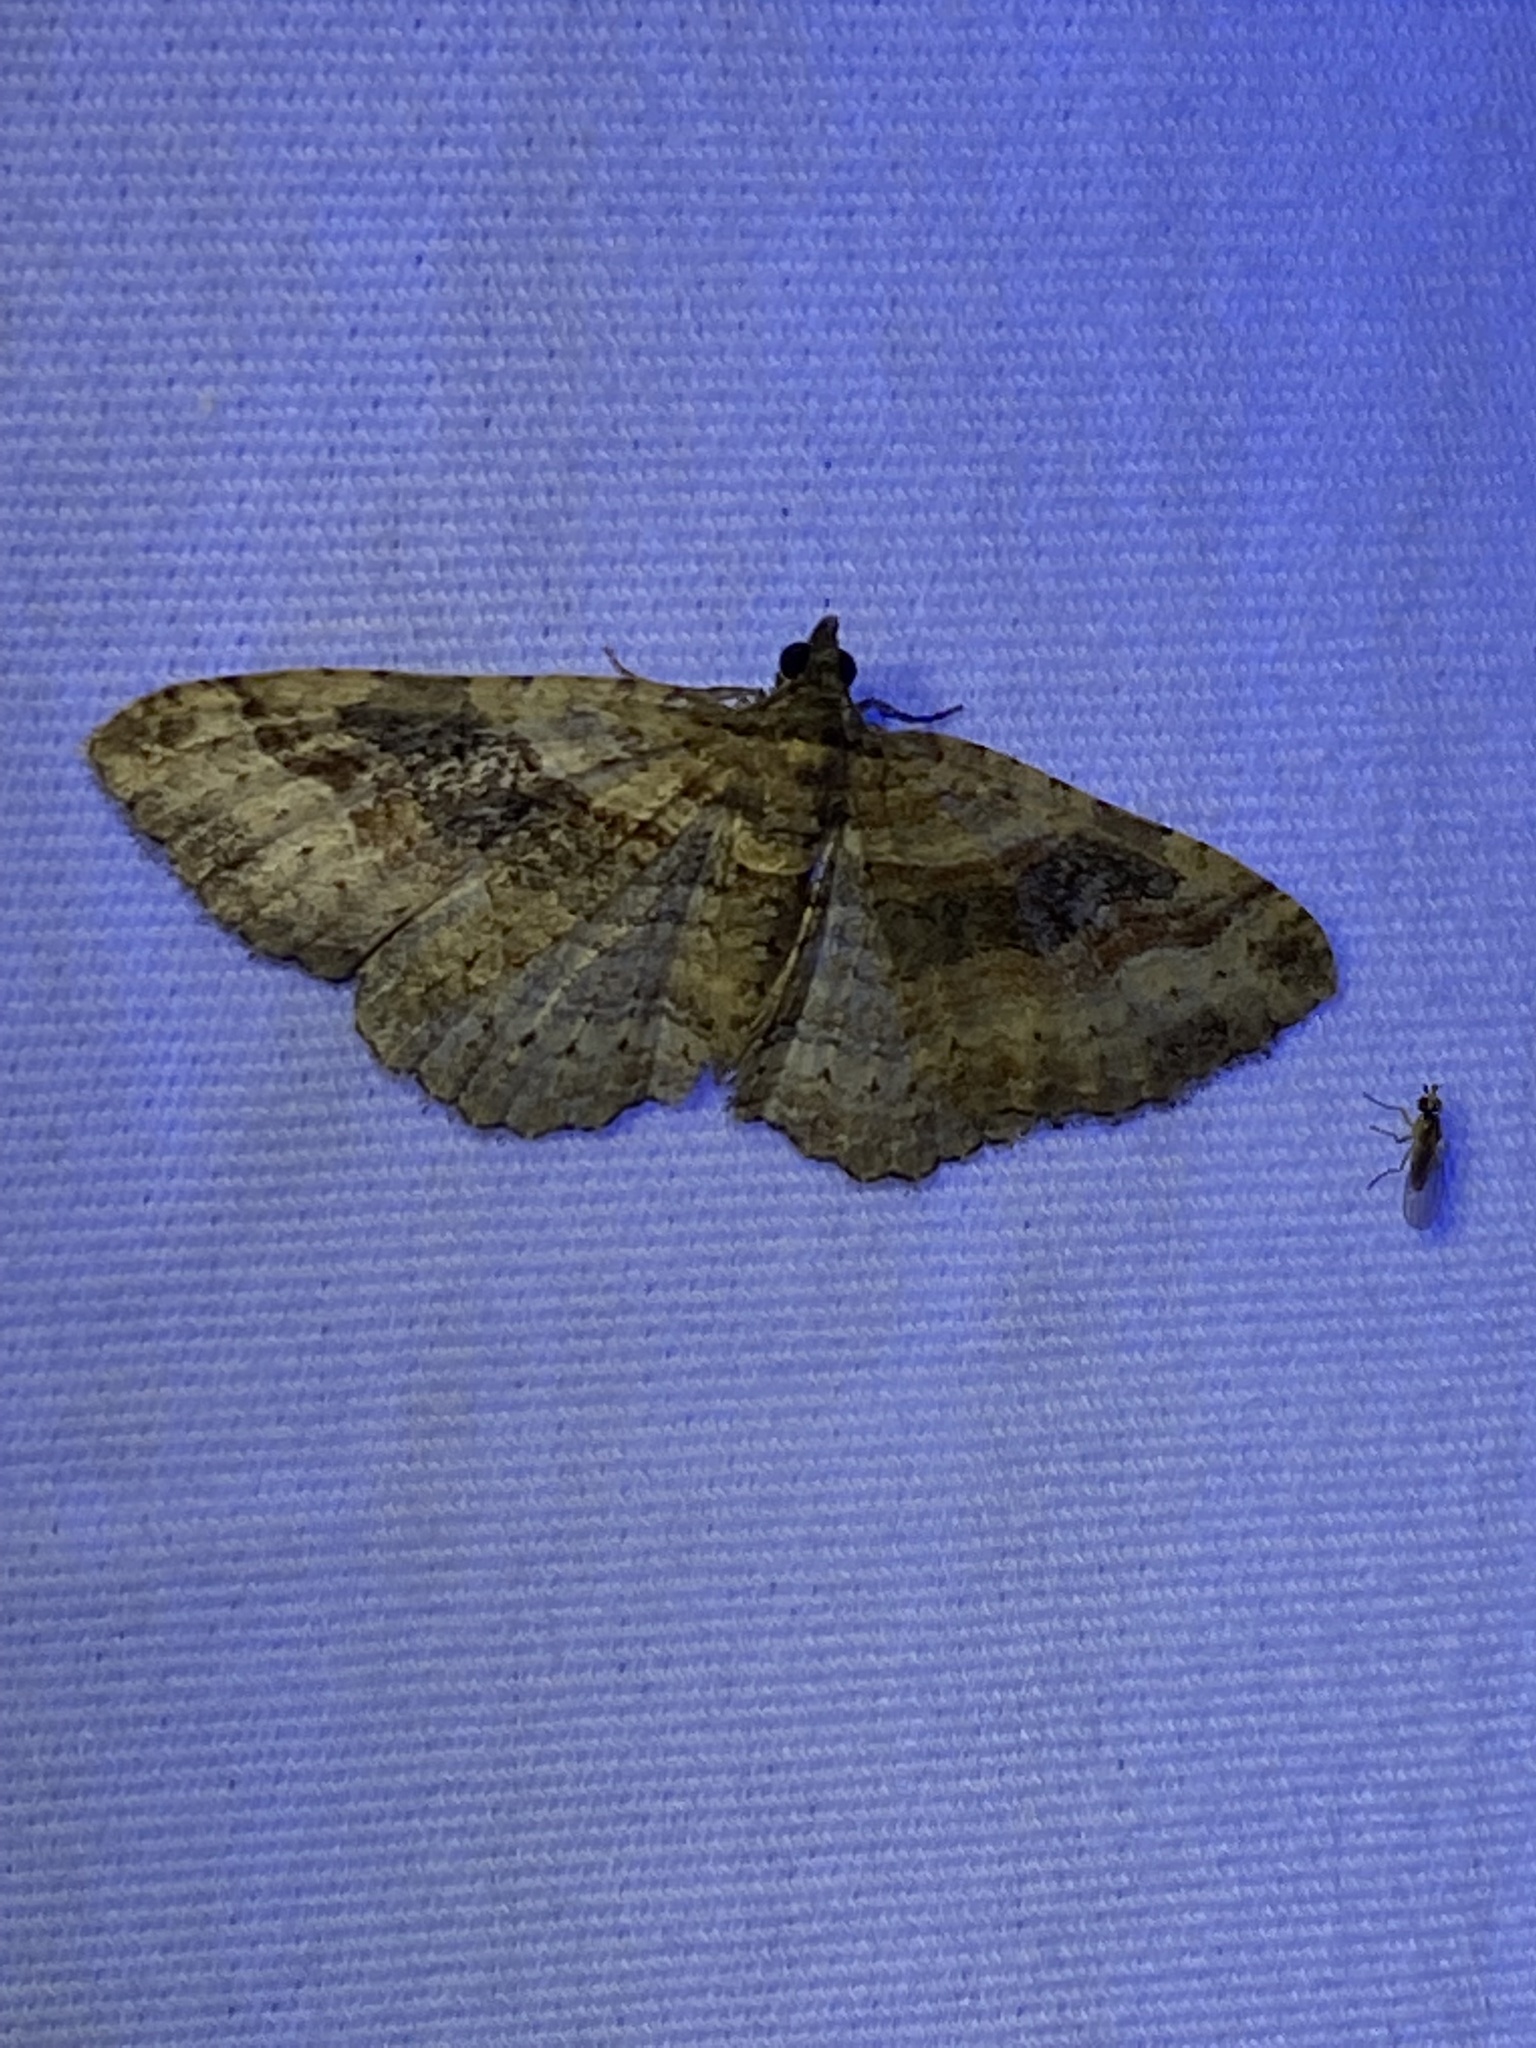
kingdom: Animalia
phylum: Arthropoda
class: Insecta
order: Lepidoptera
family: Geometridae
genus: Costaconvexa
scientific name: Costaconvexa centrostrigaria
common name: Bent-line carpet
